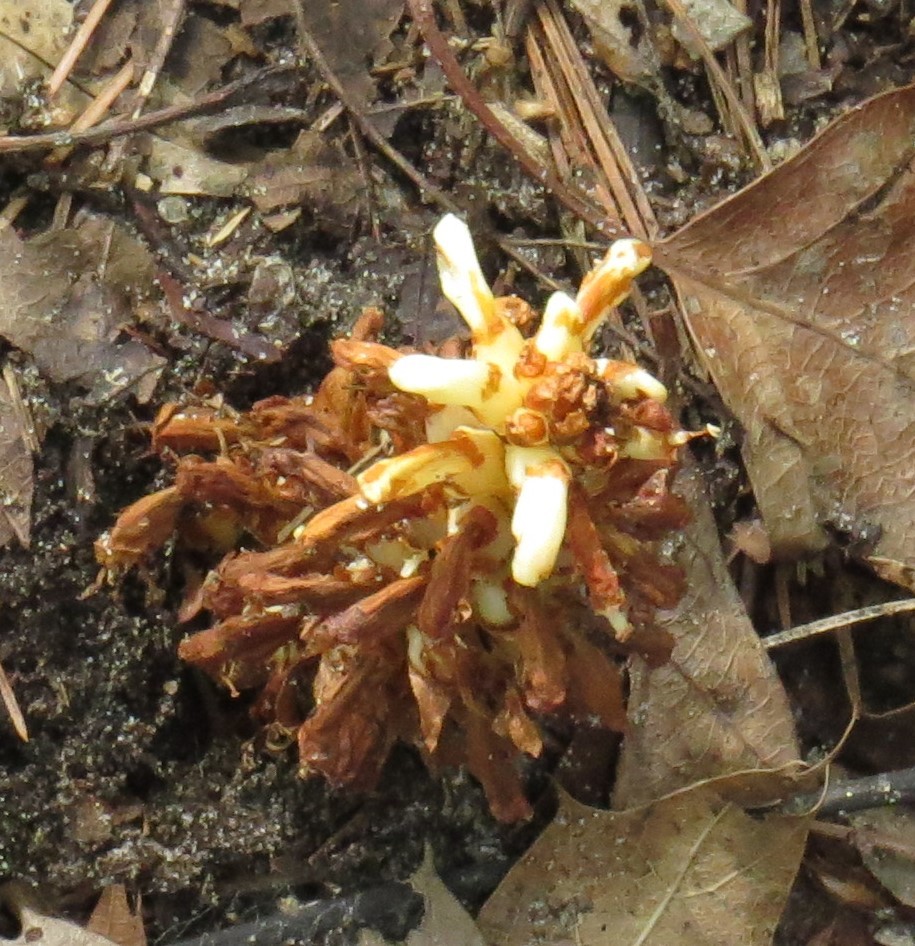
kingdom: Plantae
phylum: Tracheophyta
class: Magnoliopsida
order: Lamiales
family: Orobanchaceae
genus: Conopholis
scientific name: Conopholis americana
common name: American cancer-root
